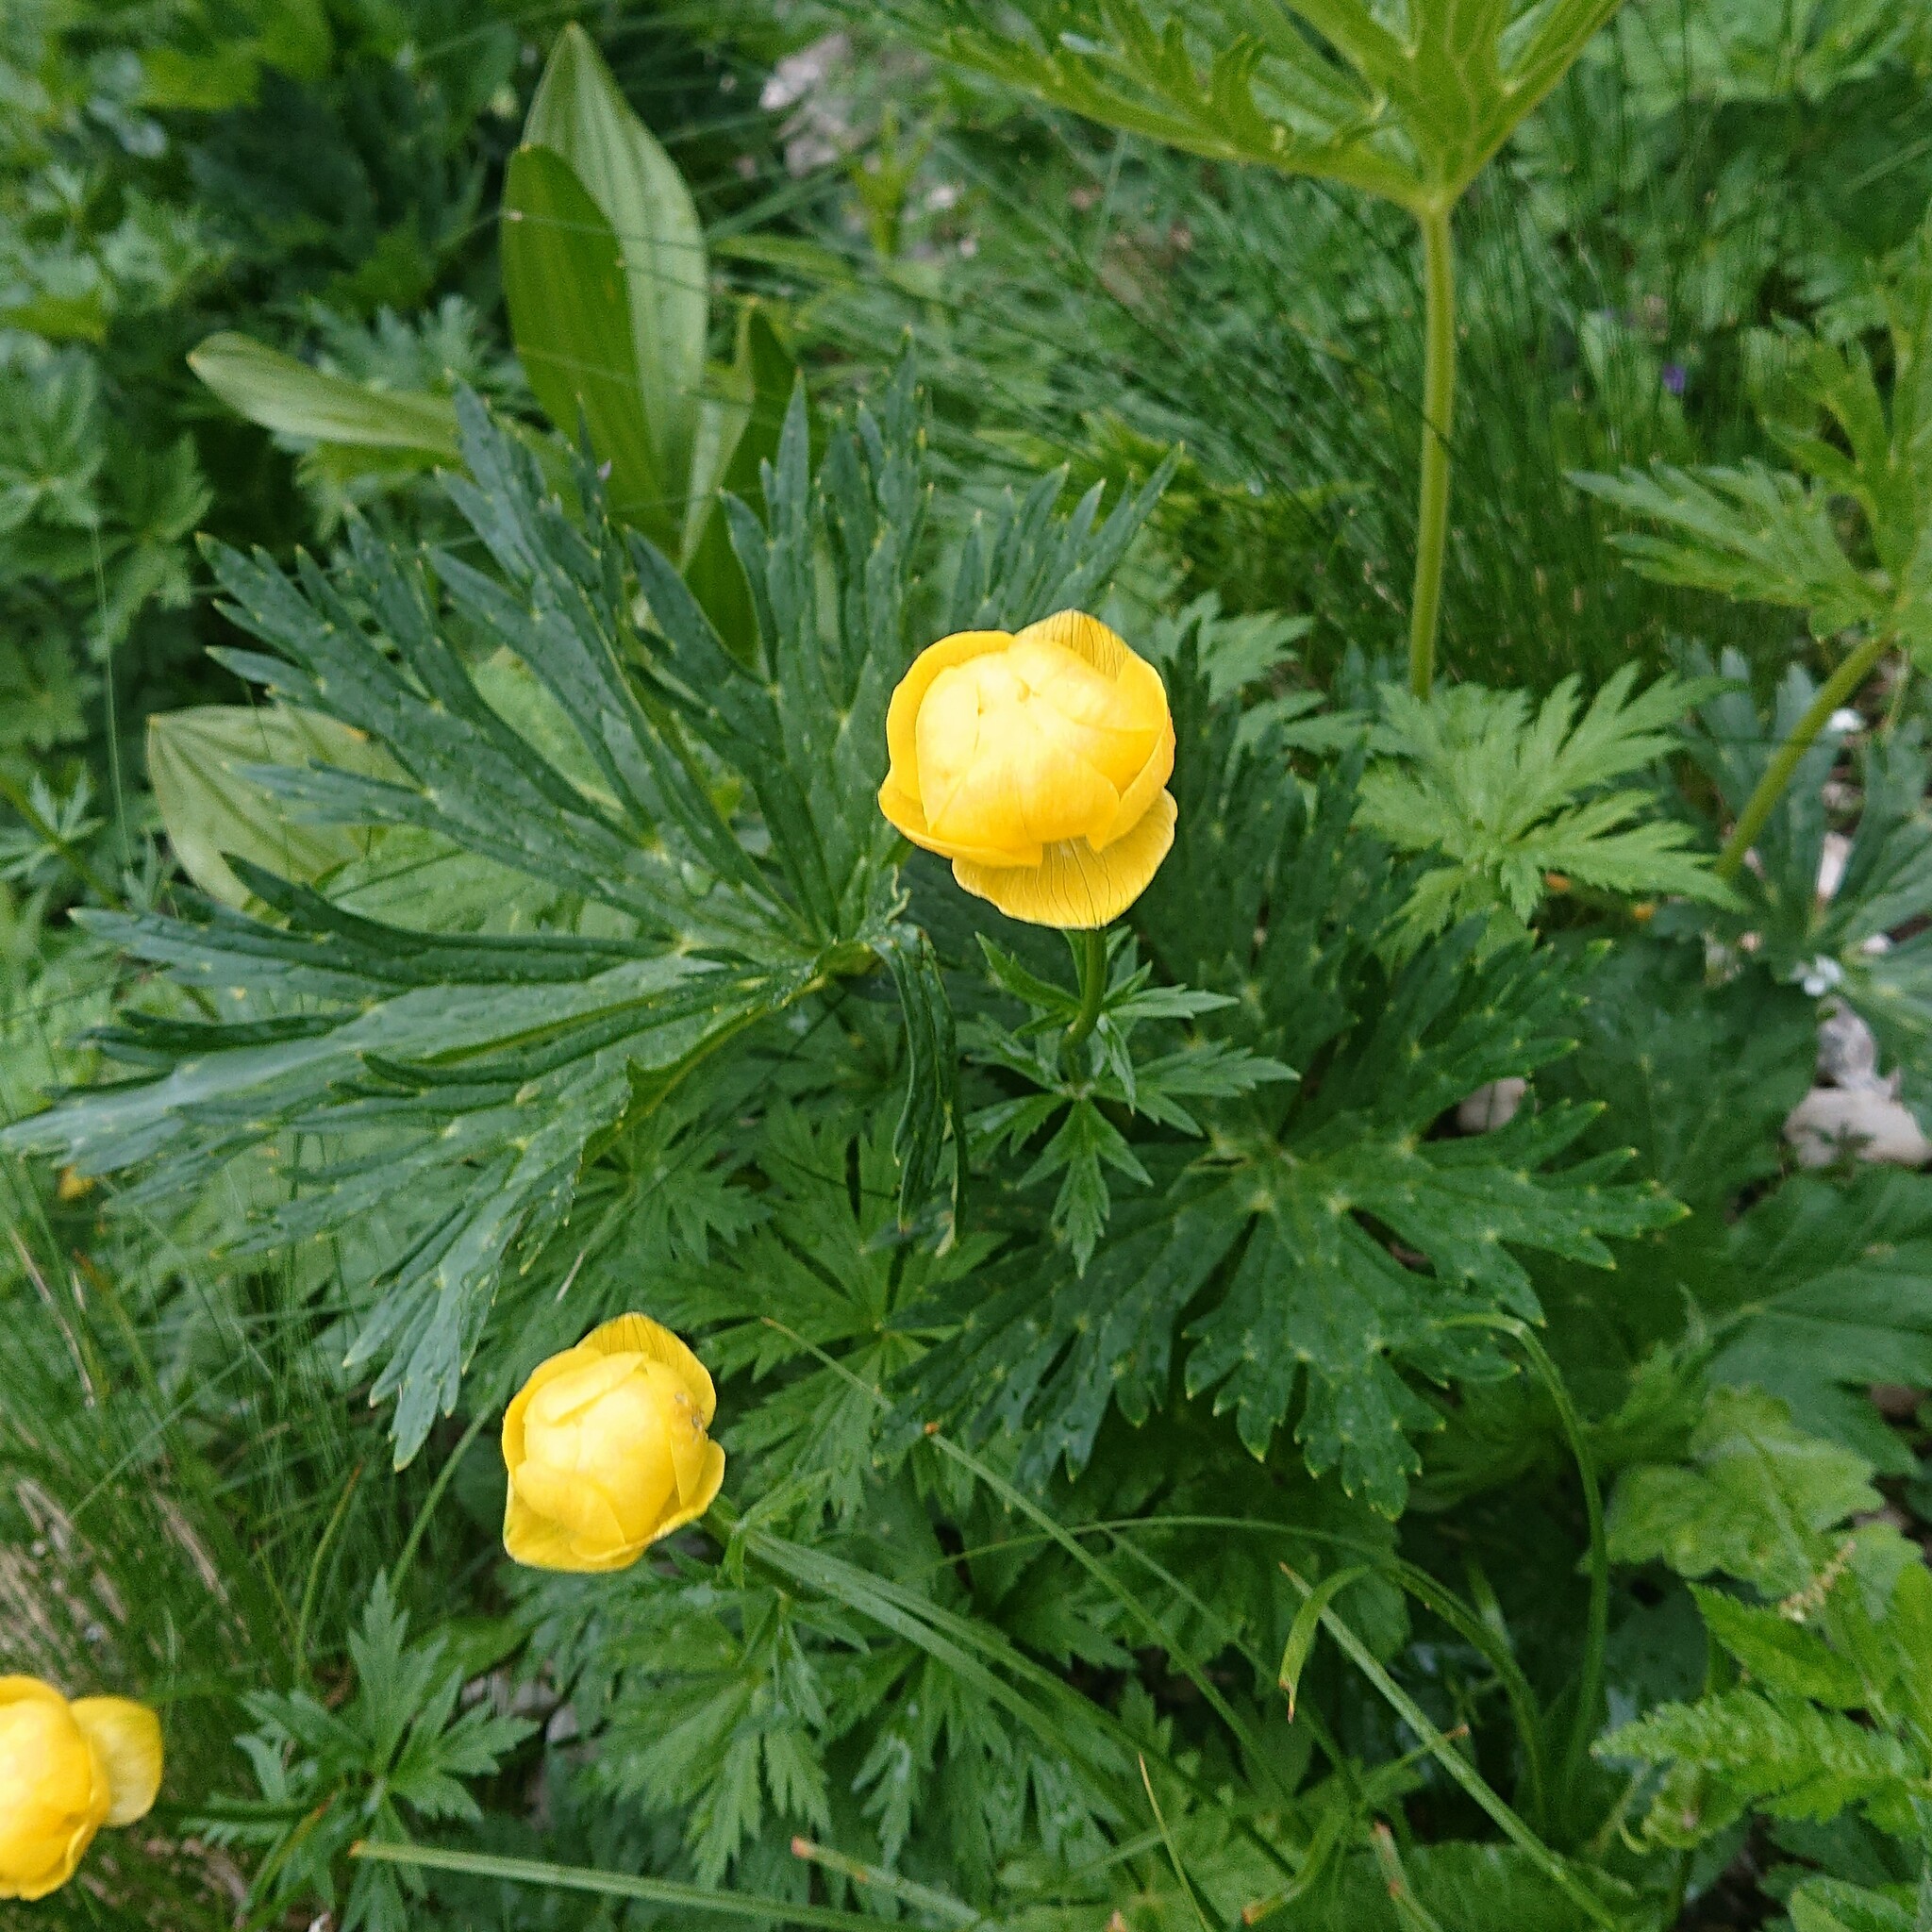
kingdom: Plantae
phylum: Tracheophyta
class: Magnoliopsida
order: Ranunculales
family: Ranunculaceae
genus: Trollius
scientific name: Trollius europaeus
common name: European globeflower
